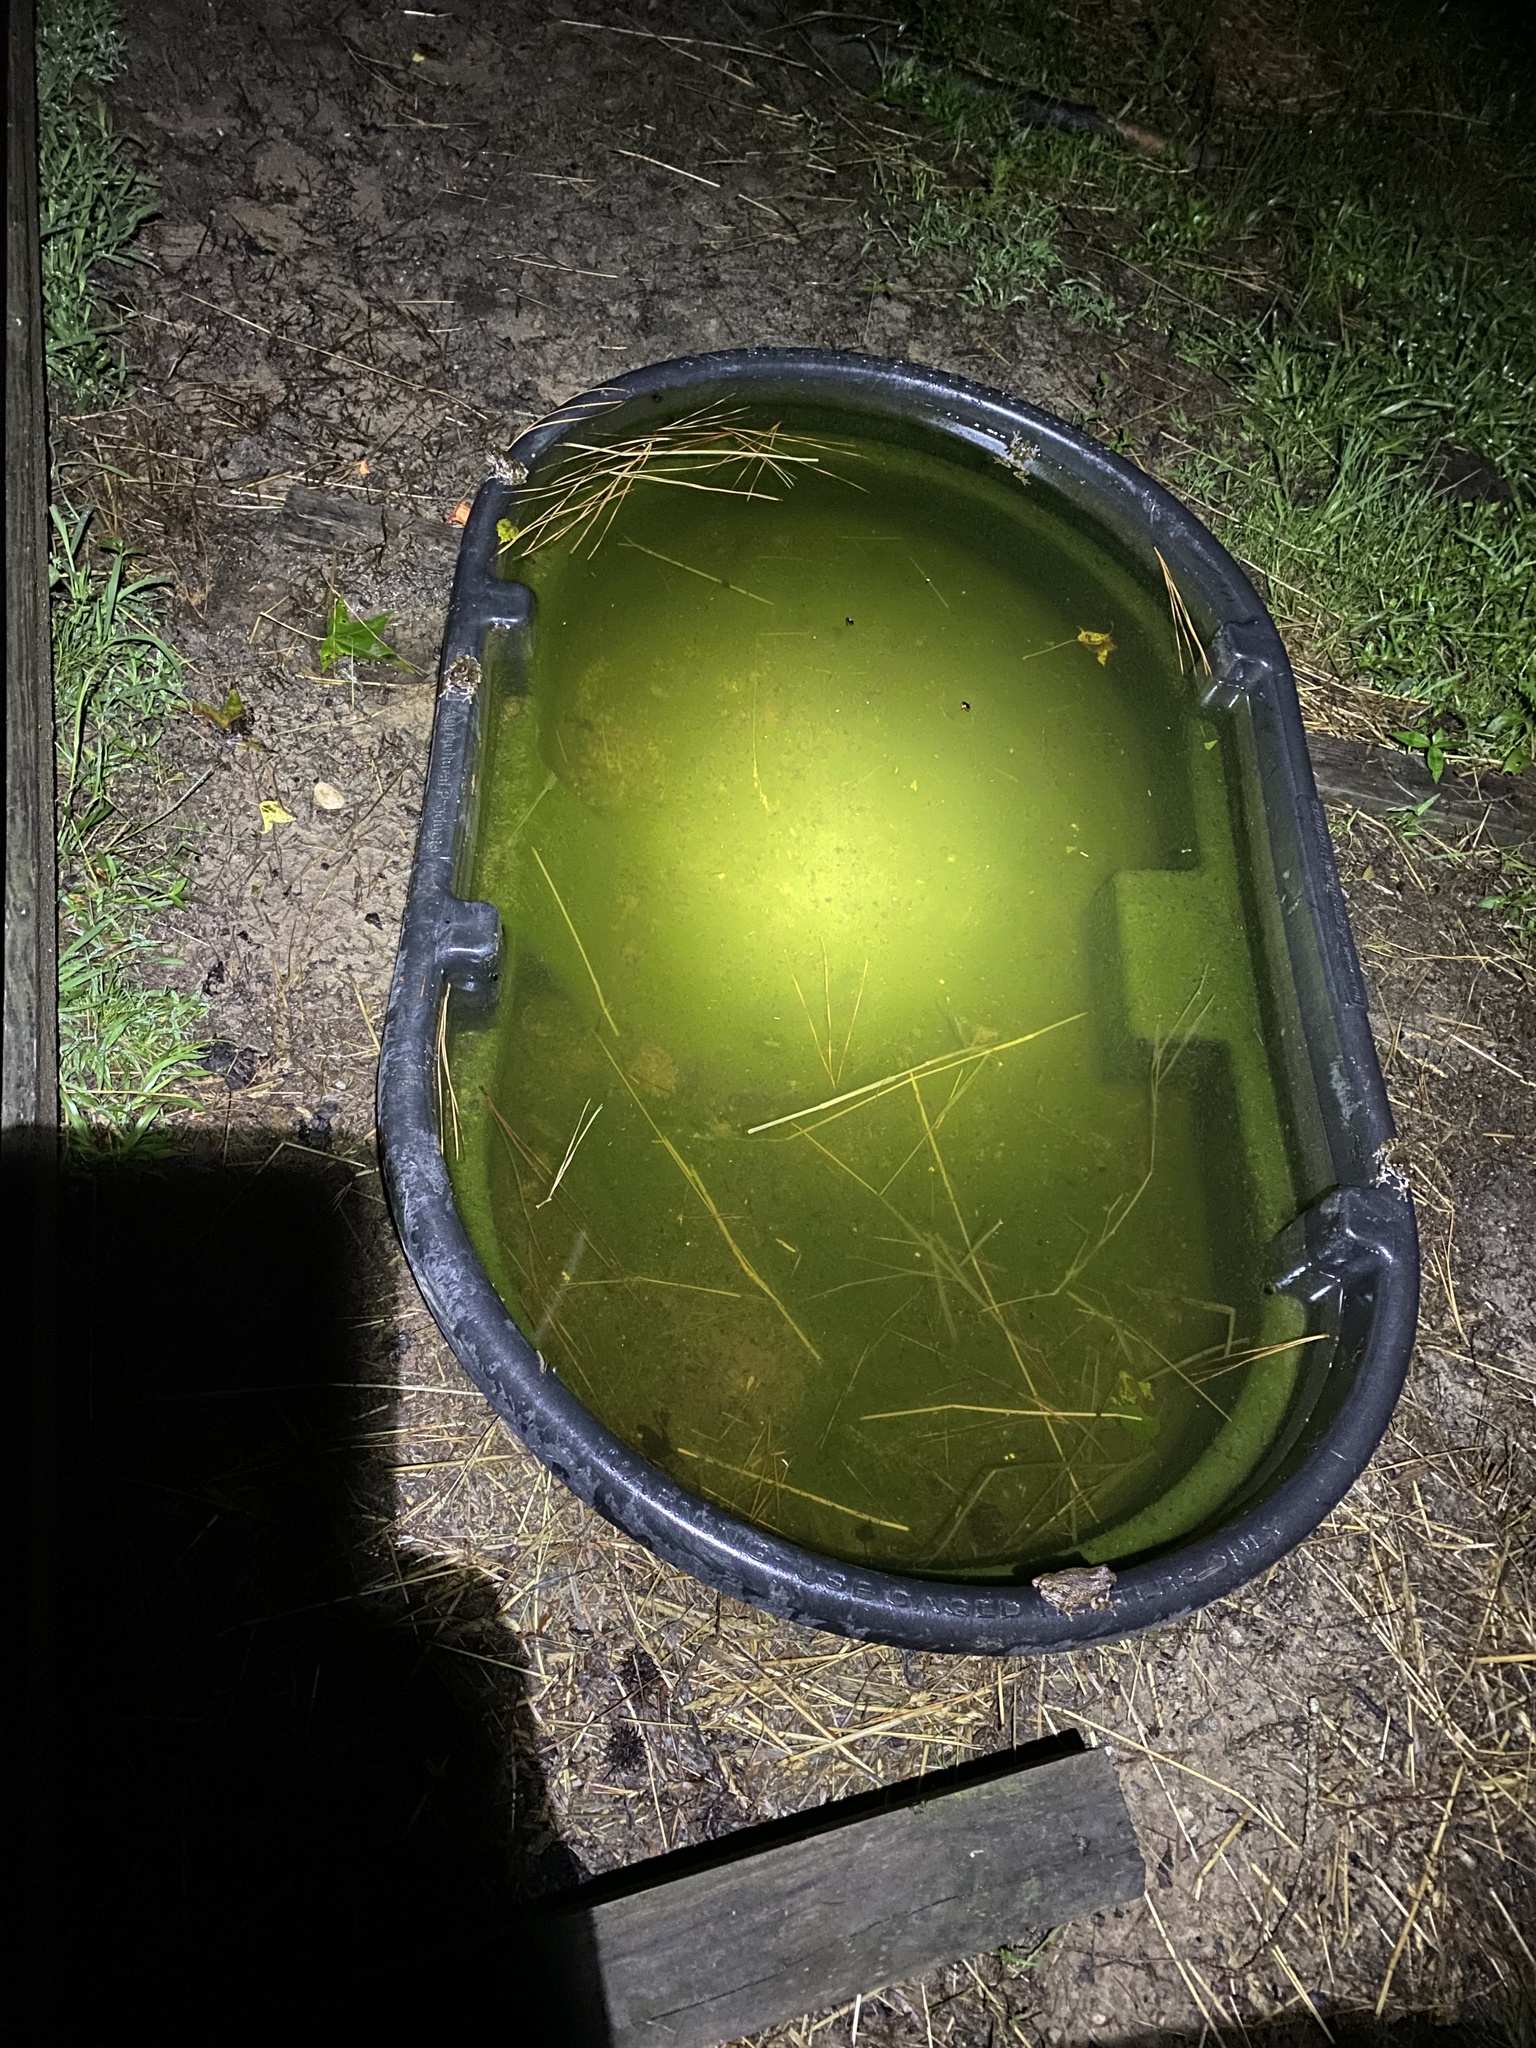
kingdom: Animalia
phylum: Chordata
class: Amphibia
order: Anura
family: Hylidae
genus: Dryophytes
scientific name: Dryophytes chrysoscelis
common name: Cope's gray treefrog
